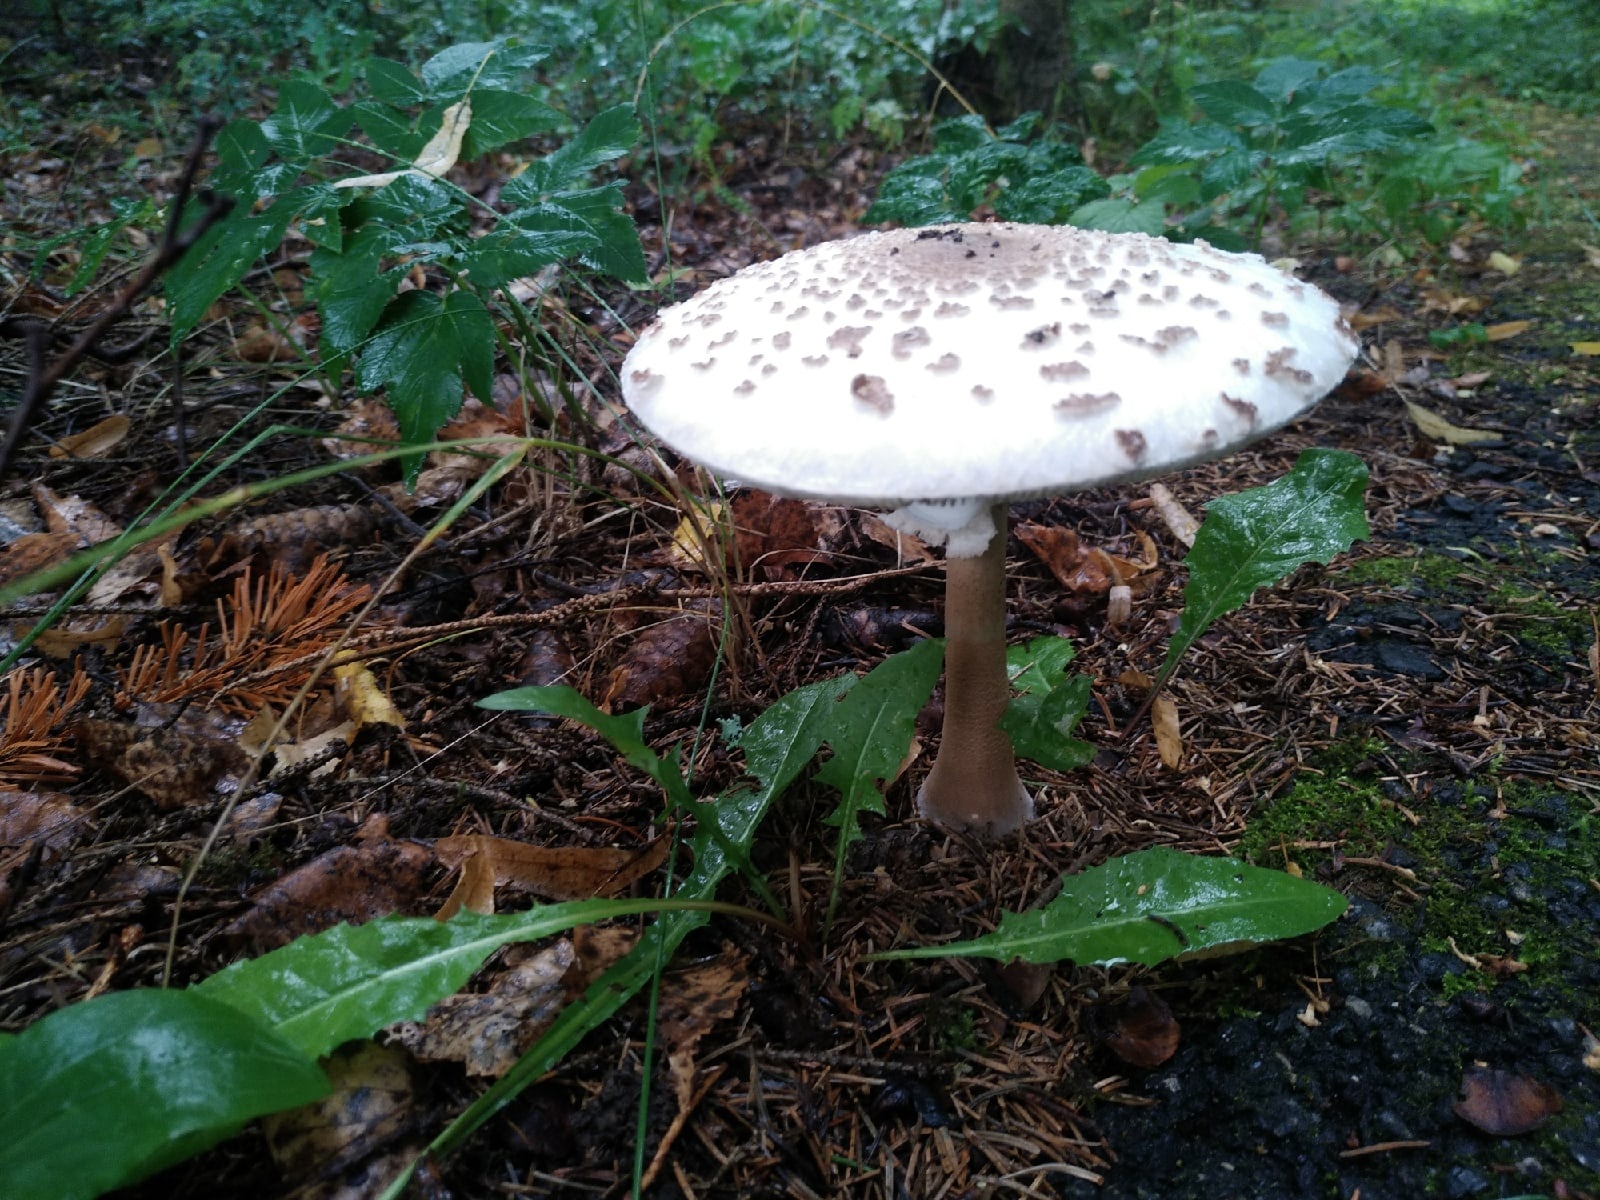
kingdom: Fungi
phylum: Basidiomycota
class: Agaricomycetes
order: Agaricales
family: Agaricaceae
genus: Macrolepiota
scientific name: Macrolepiota procera
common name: Parasol
